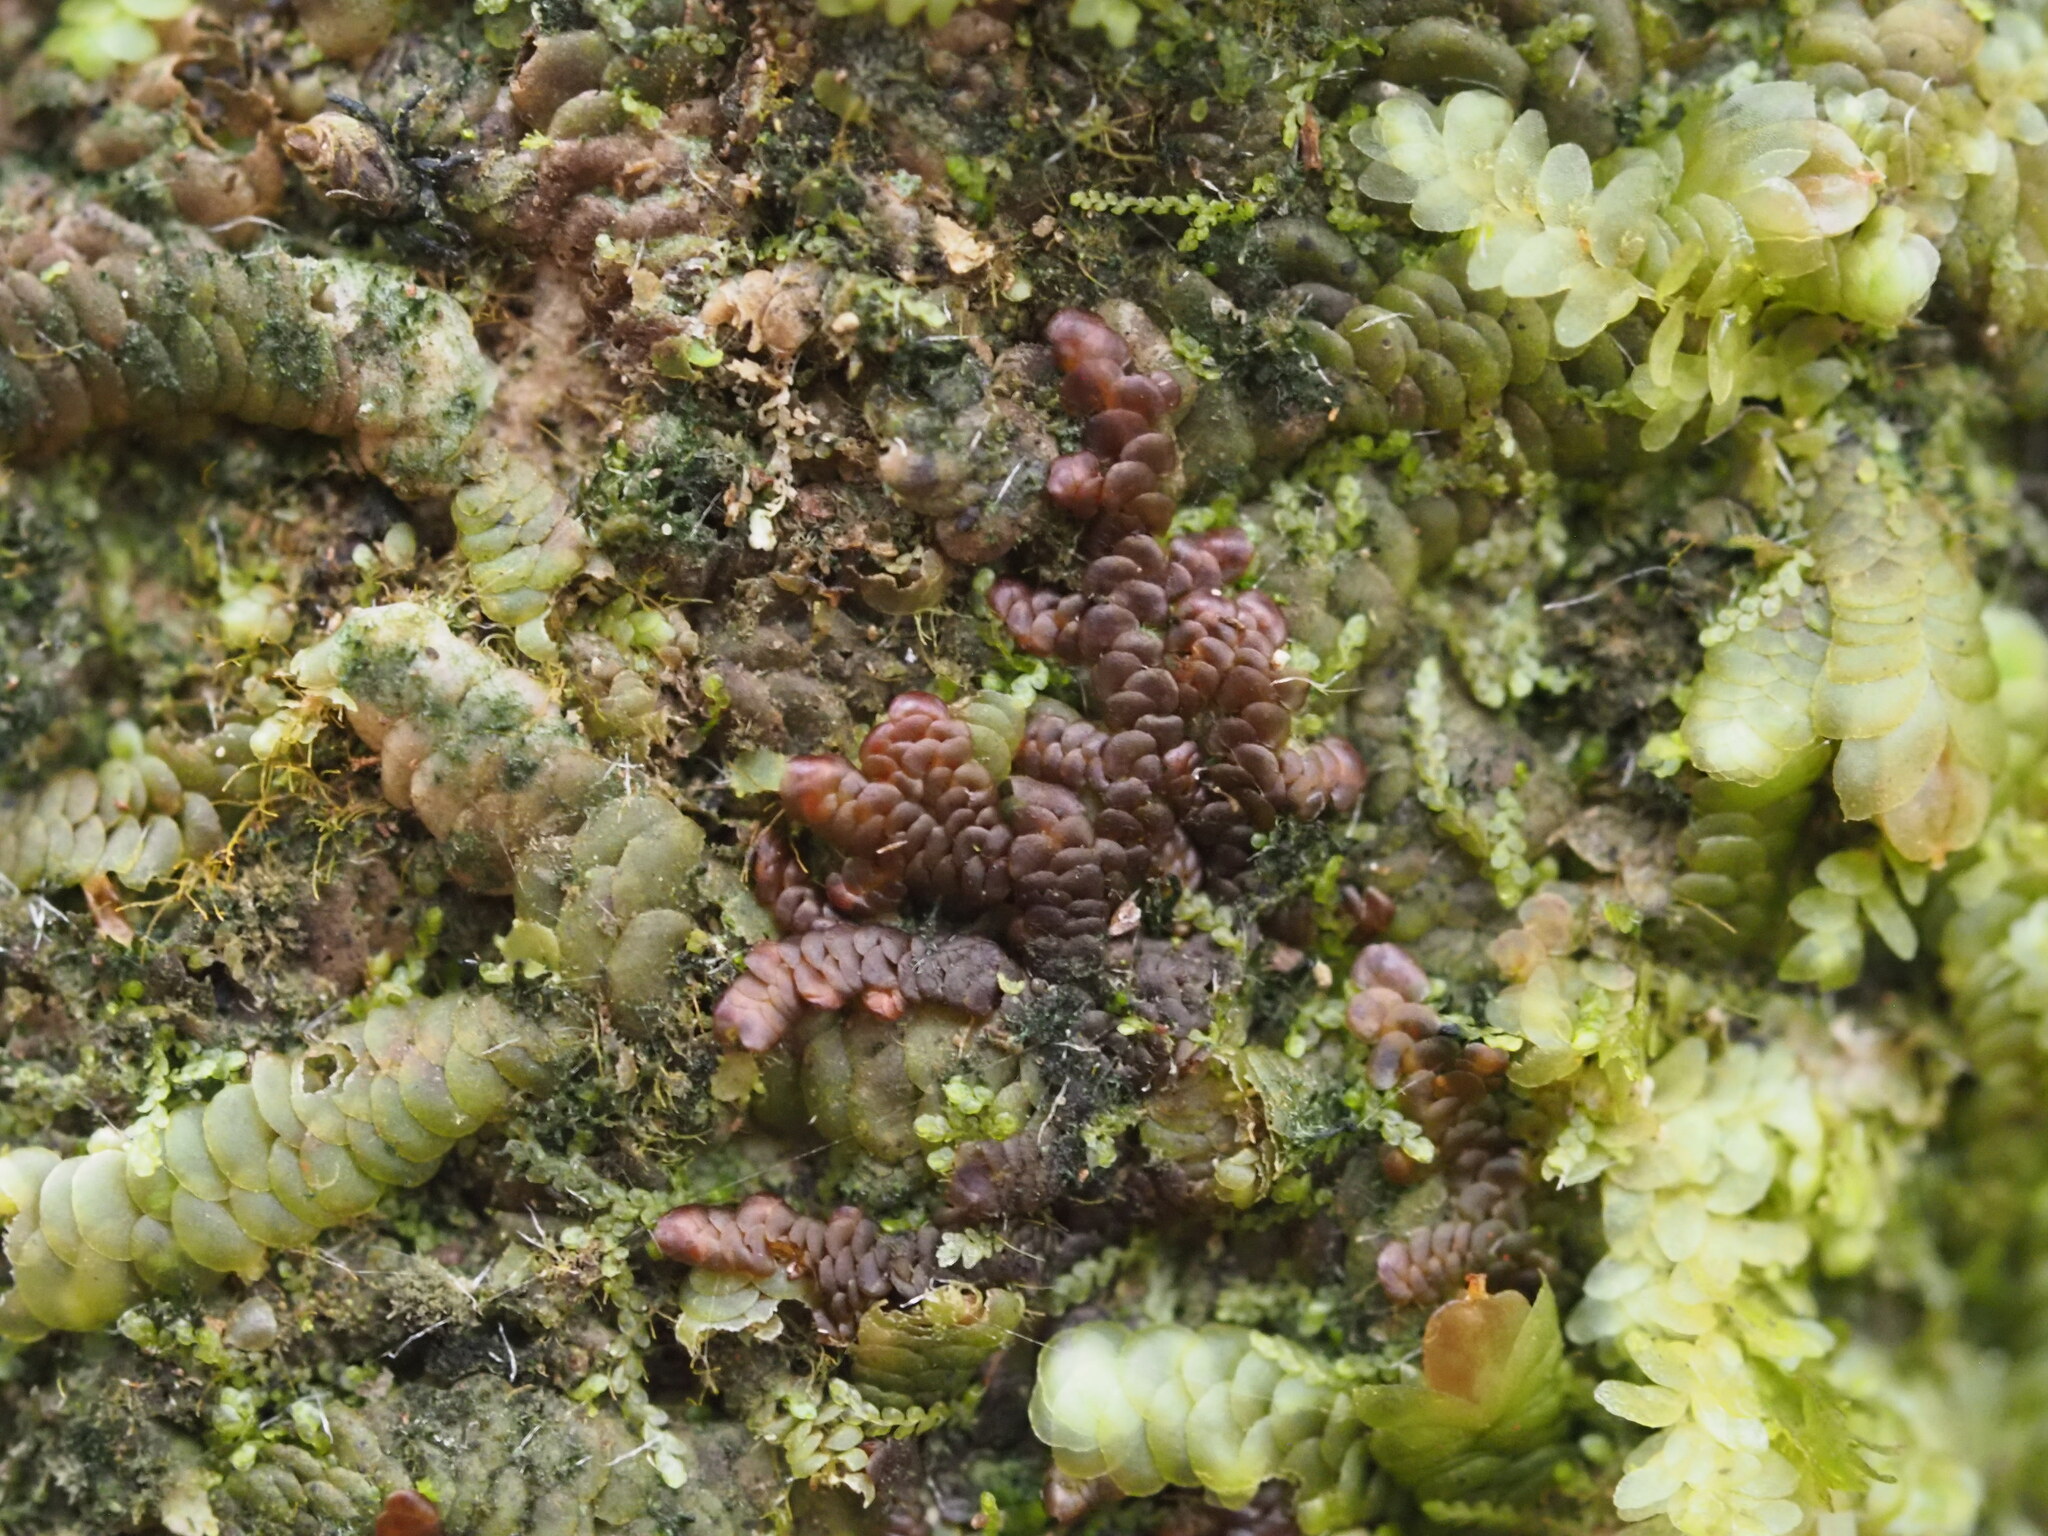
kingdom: Plantae
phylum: Marchantiophyta
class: Jungermanniopsida
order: Porellales
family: Frullaniaceae
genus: Frullania
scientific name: Frullania hypoleuca
